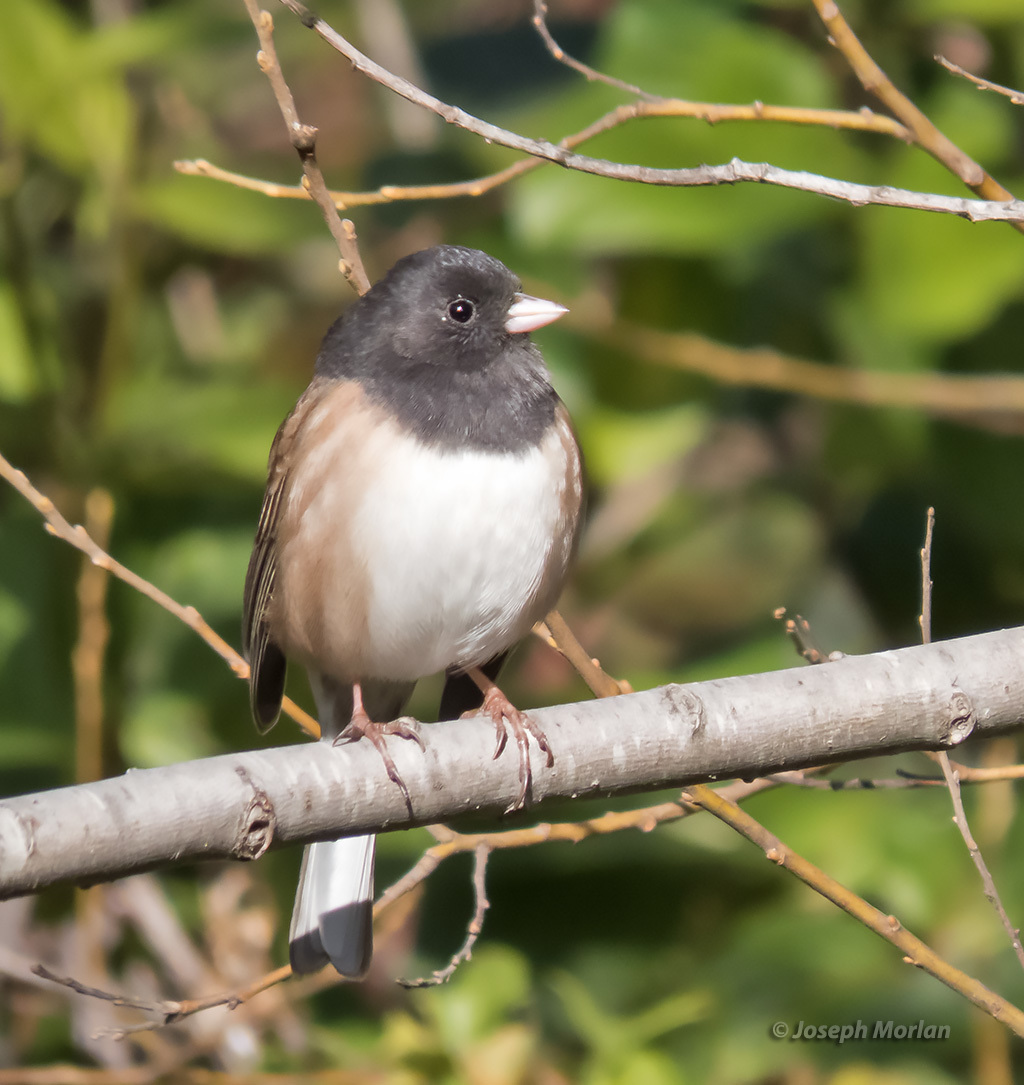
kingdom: Animalia
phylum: Chordata
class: Aves
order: Passeriformes
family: Passerellidae
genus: Junco
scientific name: Junco hyemalis
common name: Dark-eyed junco
